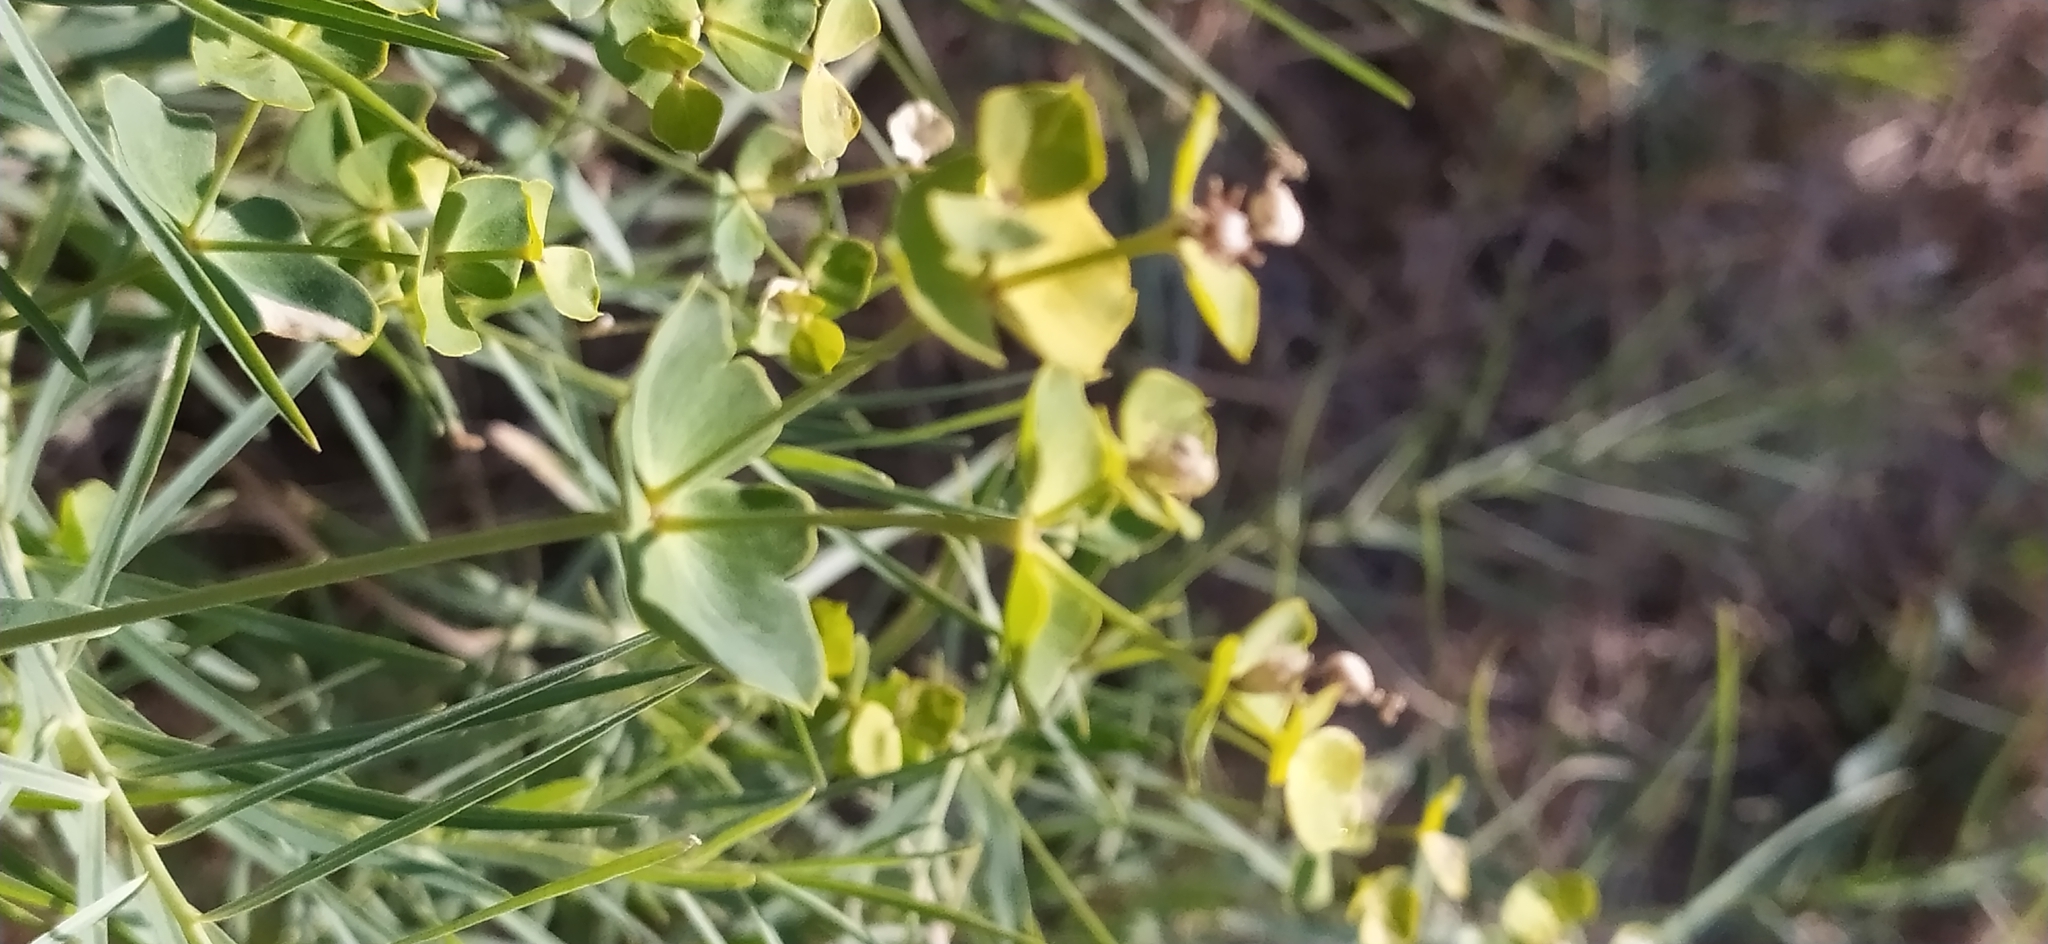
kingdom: Plantae
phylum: Tracheophyta
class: Magnoliopsida
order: Malpighiales
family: Euphorbiaceae
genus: Euphorbia
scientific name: Euphorbia tommasiniana
